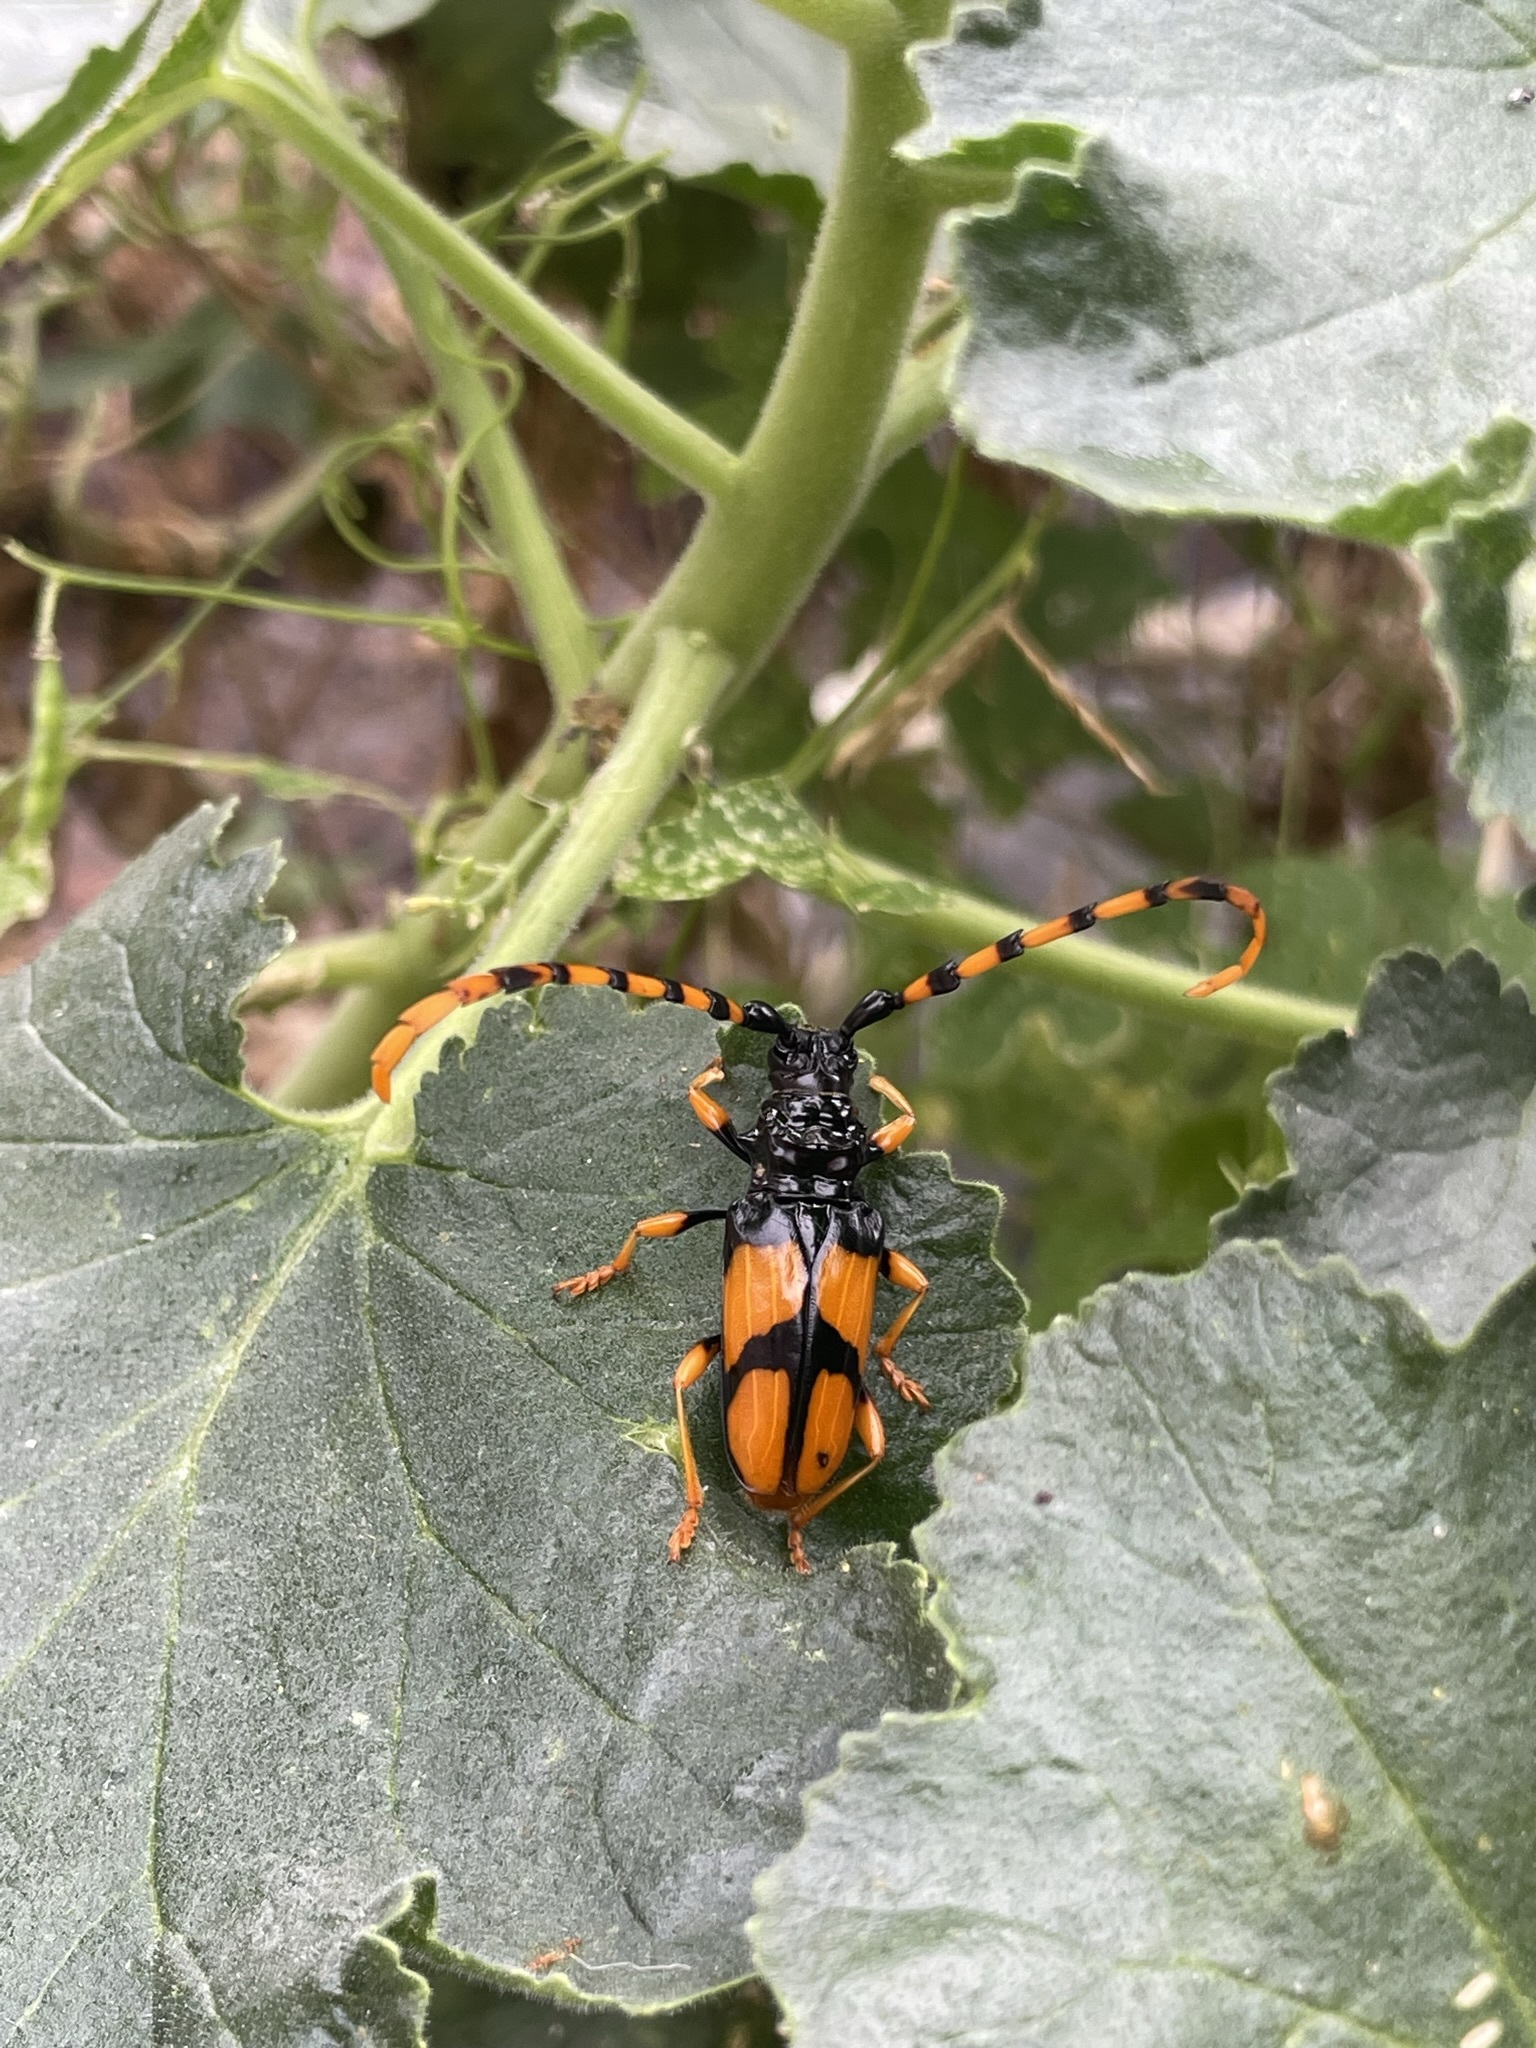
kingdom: Animalia
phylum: Arthropoda
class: Insecta
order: Coleoptera
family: Cerambycidae
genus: Trachyderes
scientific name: Trachyderes mandibularis
